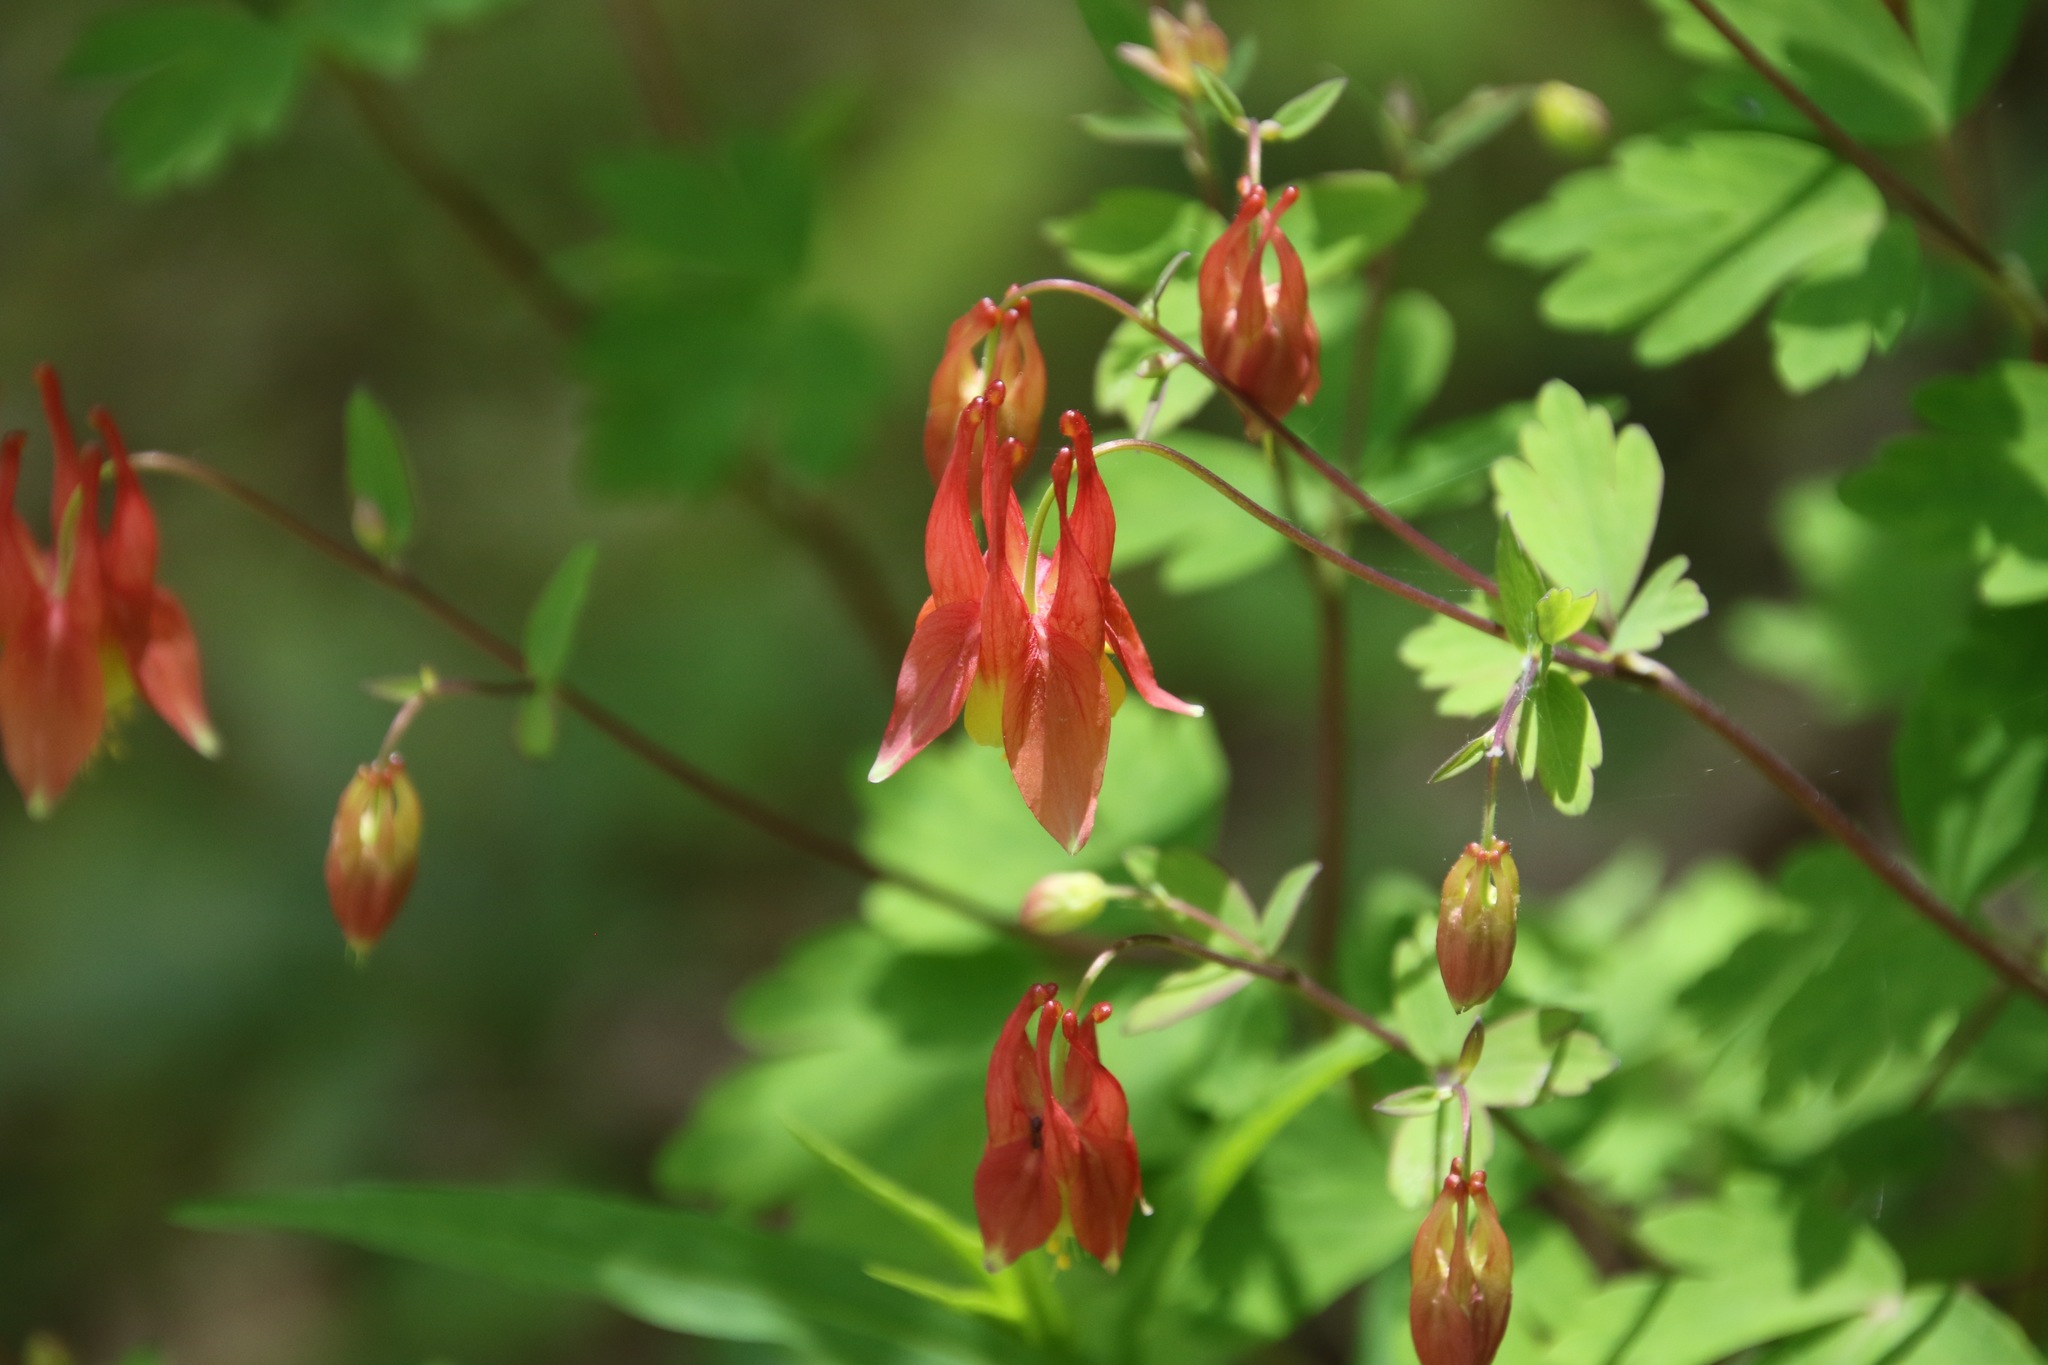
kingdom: Plantae
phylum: Tracheophyta
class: Magnoliopsida
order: Ranunculales
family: Ranunculaceae
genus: Aquilegia
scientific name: Aquilegia canadensis
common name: American columbine
